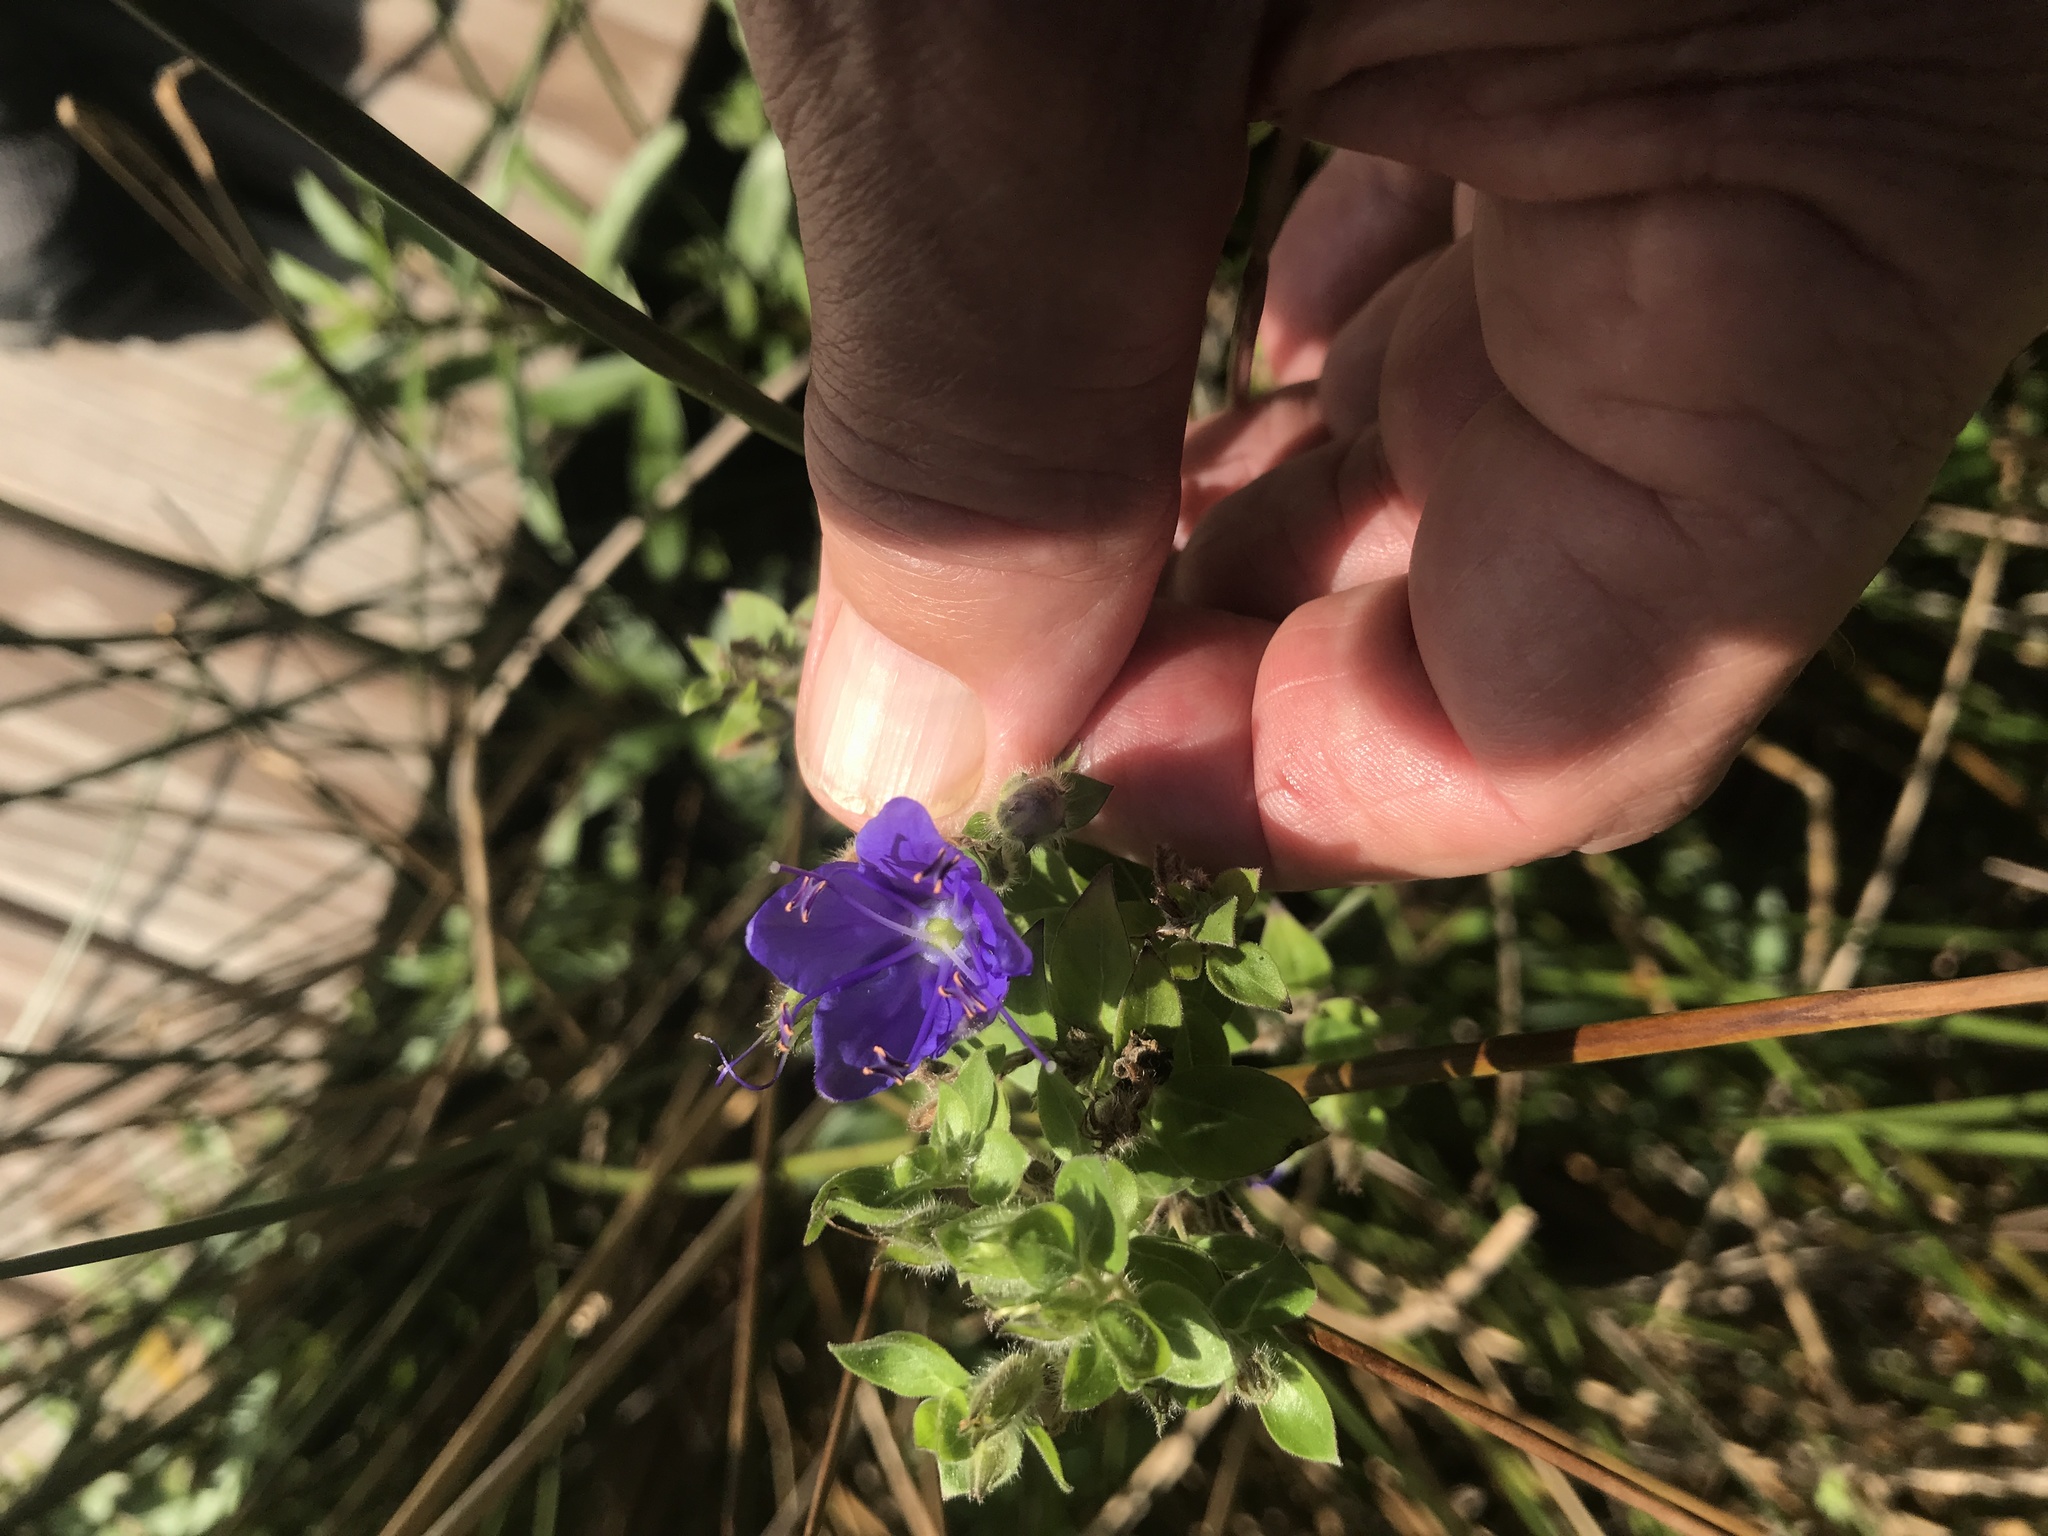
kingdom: Plantae
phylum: Tracheophyta
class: Magnoliopsida
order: Solanales
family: Hydroleaceae
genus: Hydrolea
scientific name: Hydrolea ovata
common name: Ovate false fiddleleaf
